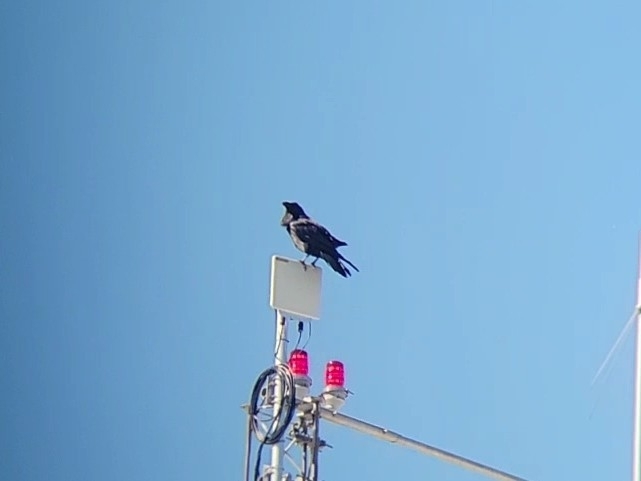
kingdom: Animalia
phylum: Chordata
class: Aves
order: Passeriformes
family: Corvidae
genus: Corvus
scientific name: Corvus corax
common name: Common raven
